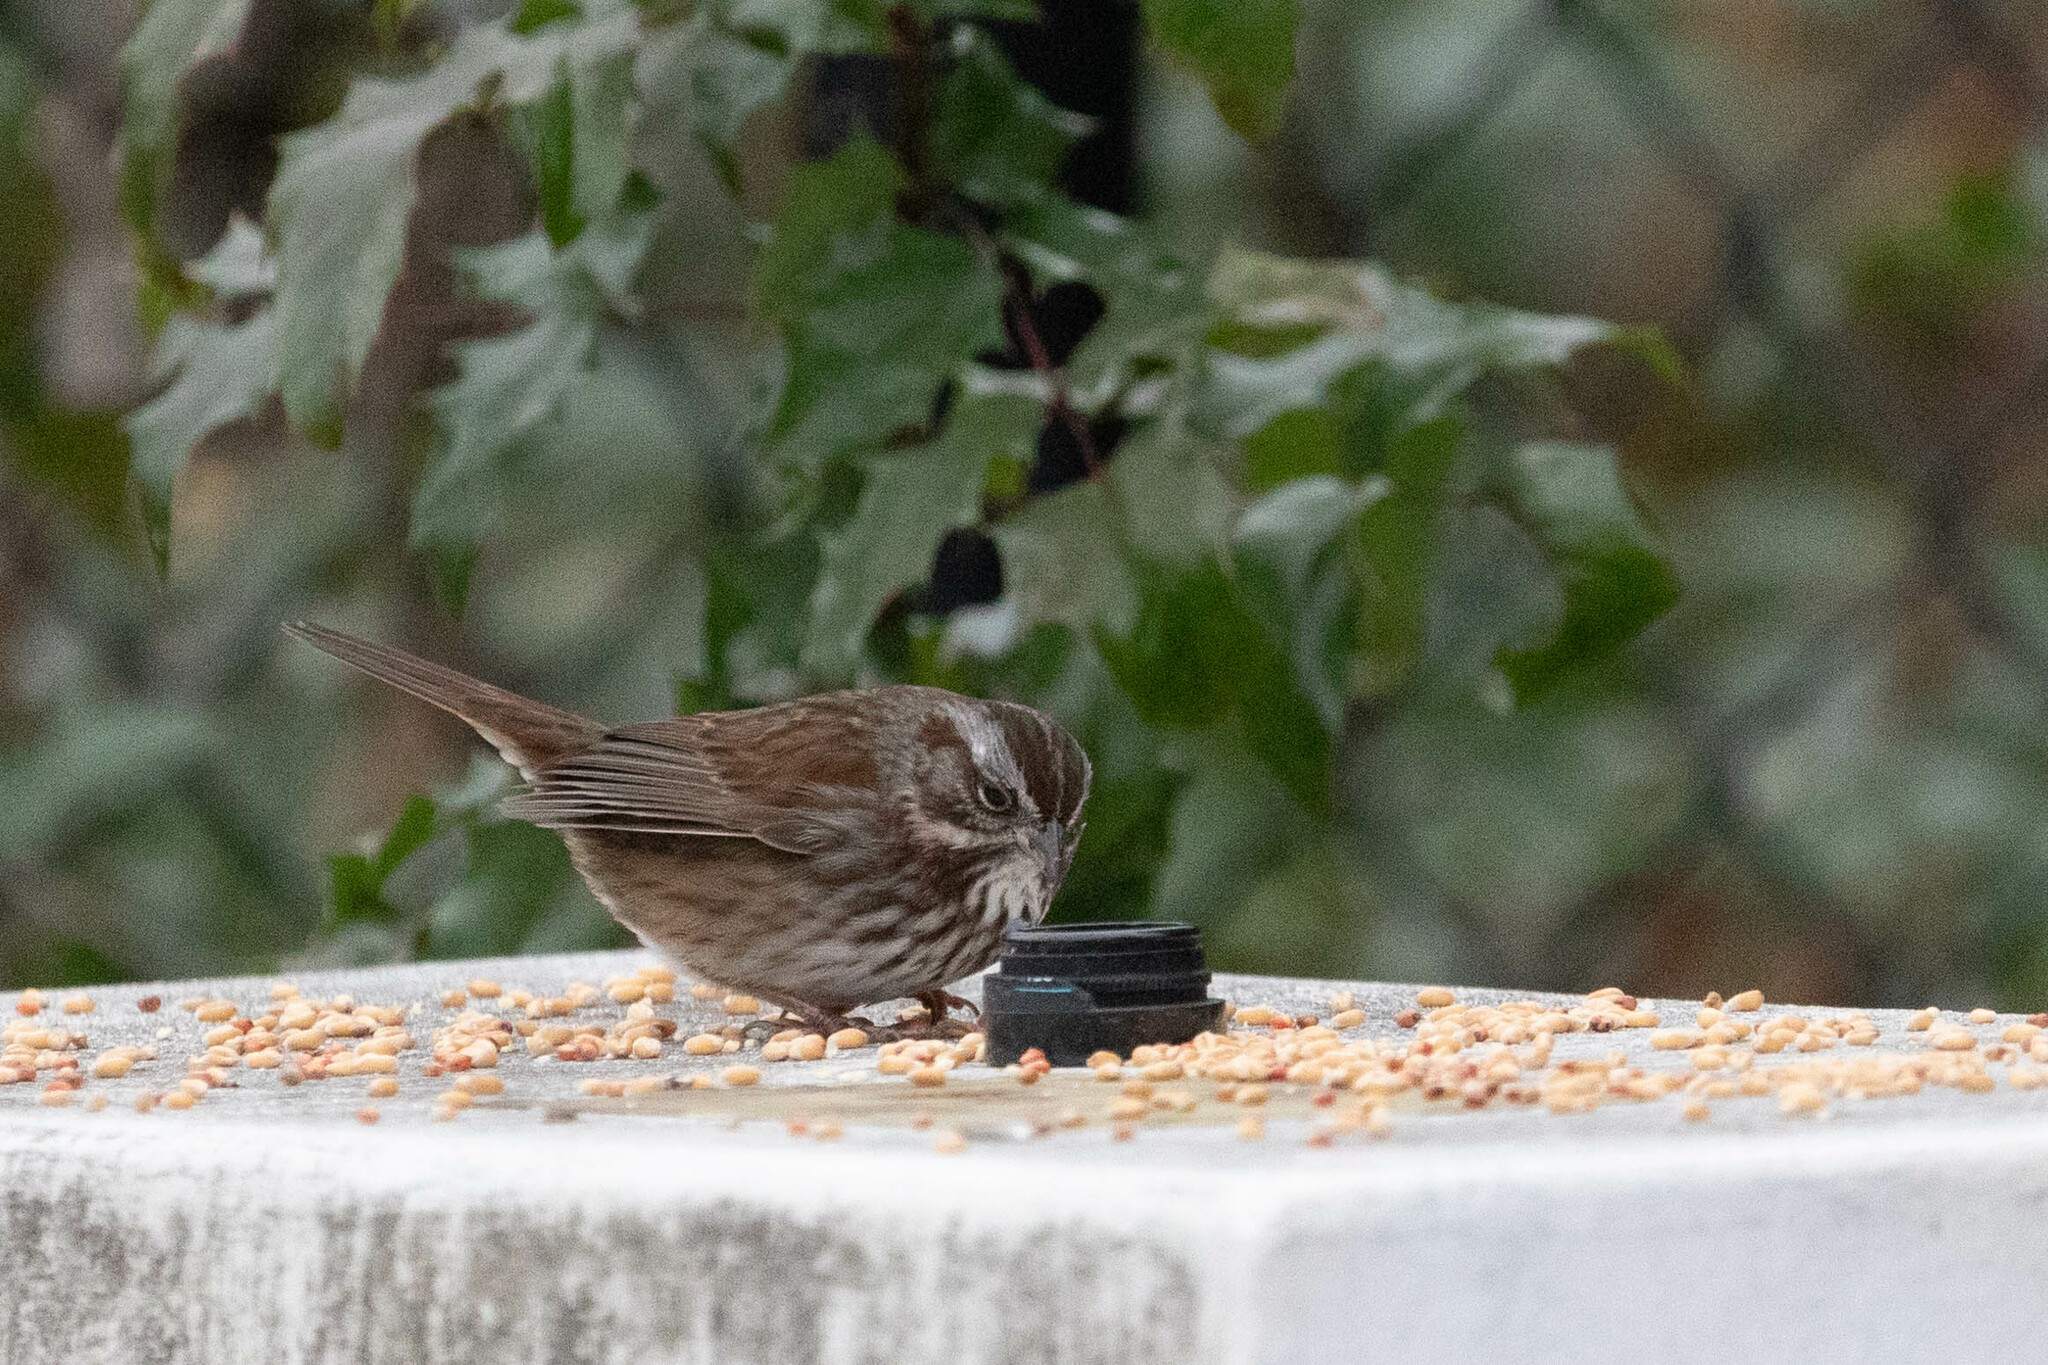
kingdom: Animalia
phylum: Chordata
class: Aves
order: Passeriformes
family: Passerellidae
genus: Melospiza
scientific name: Melospiza melodia
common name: Song sparrow
